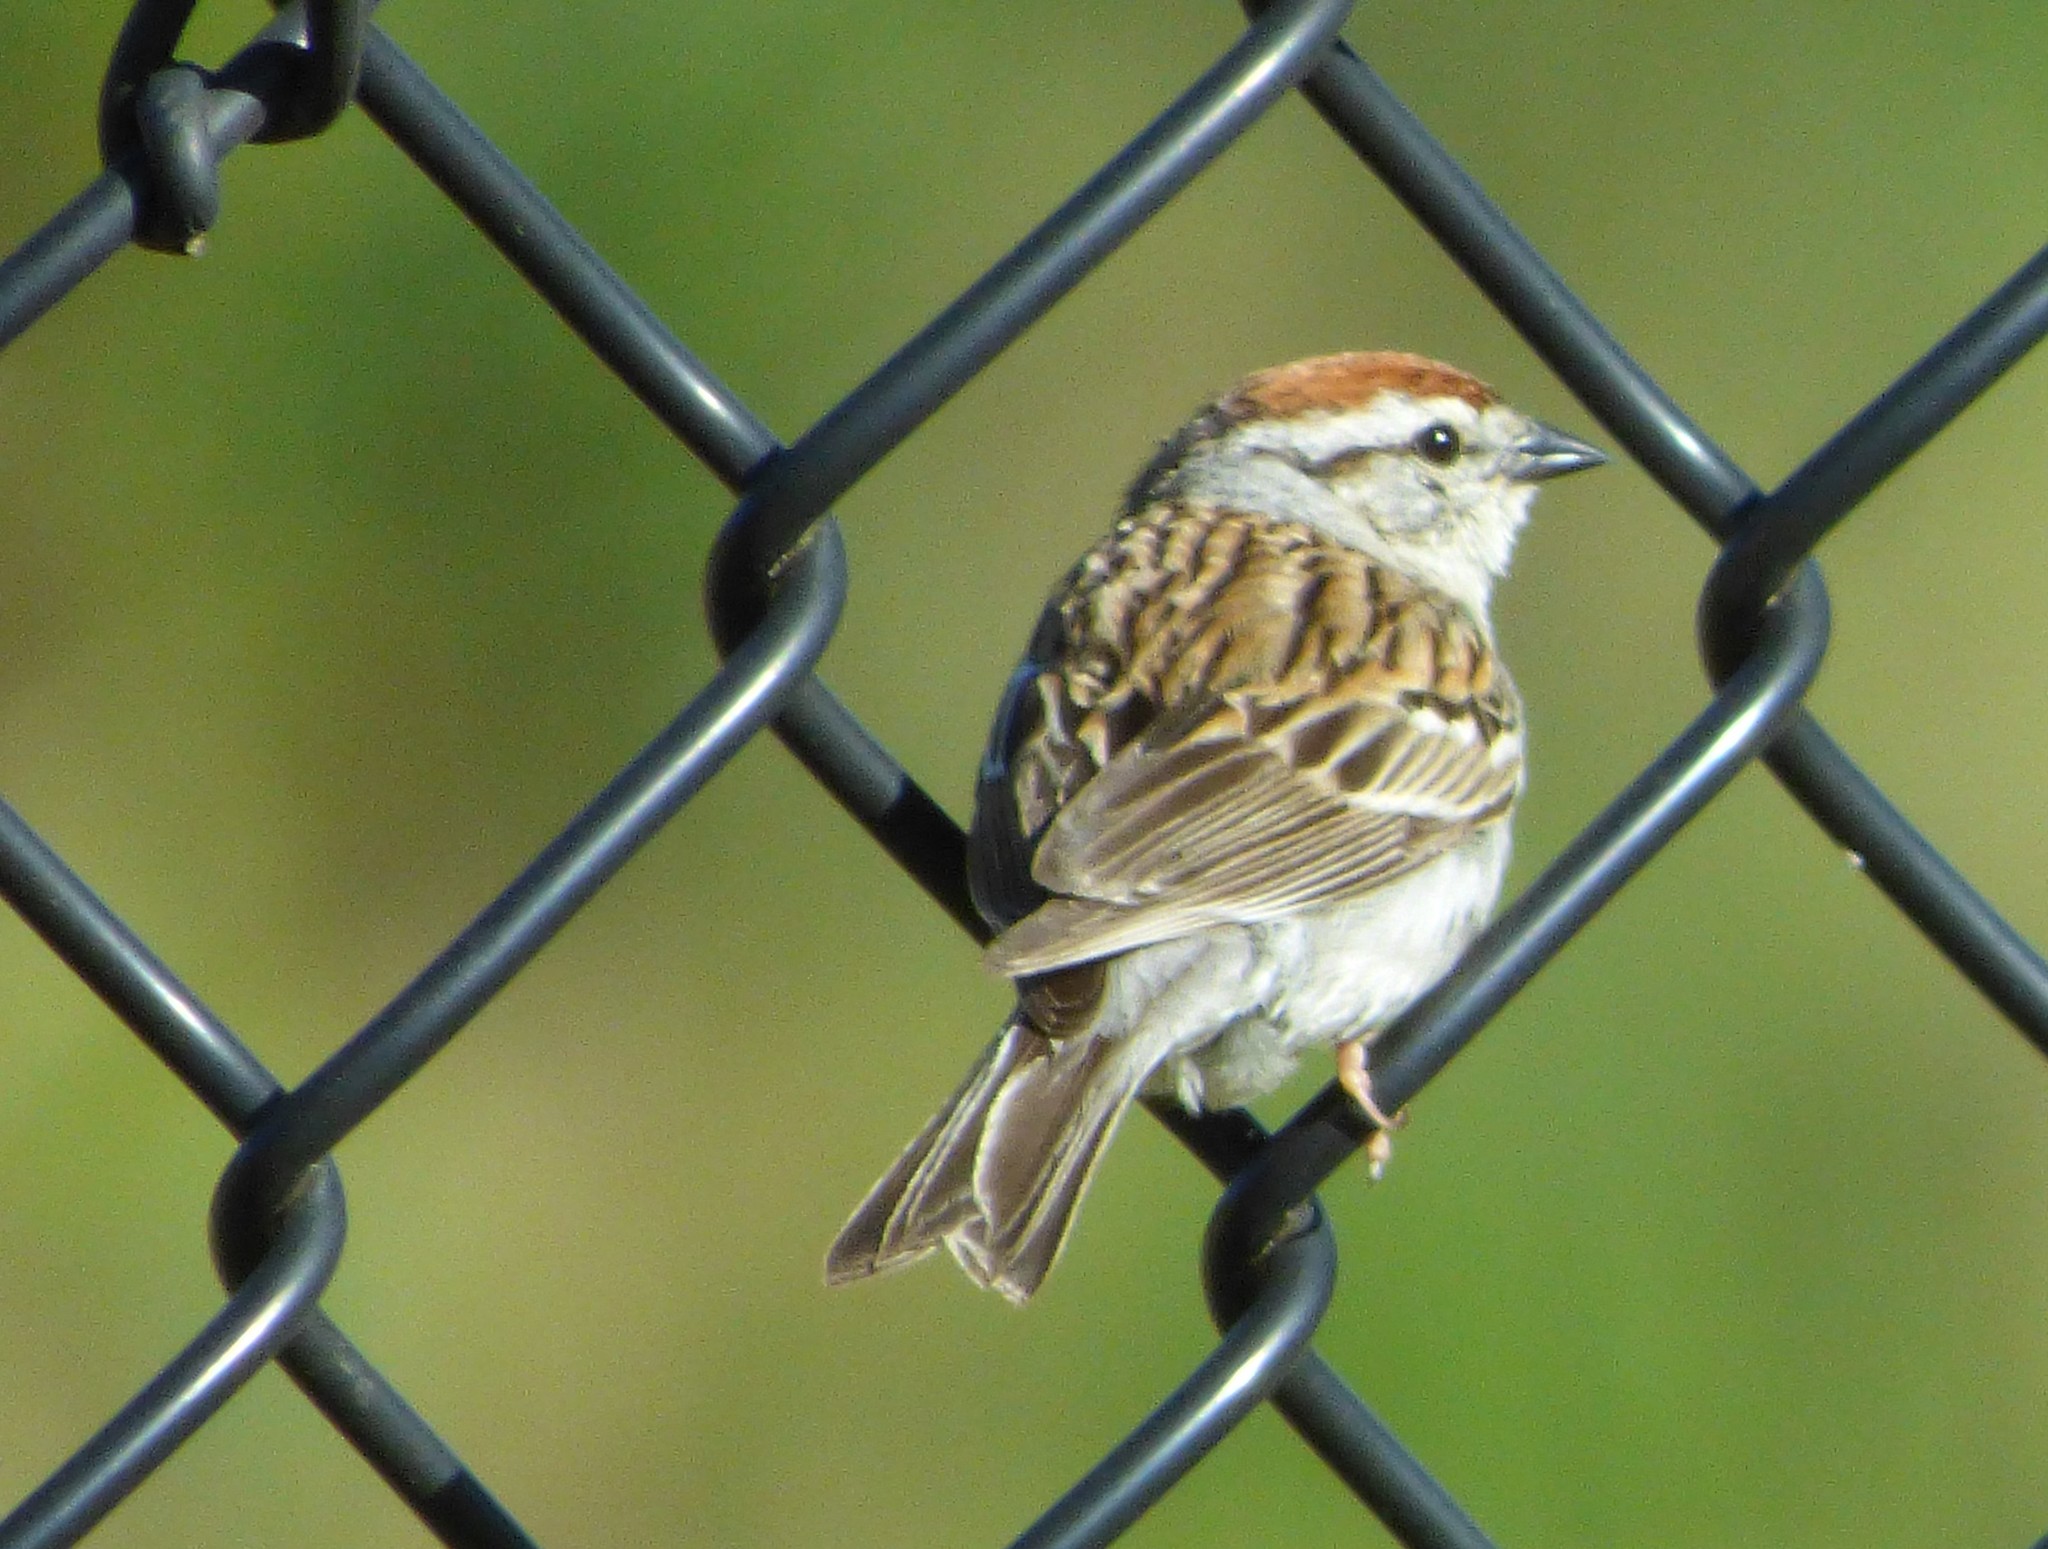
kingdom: Animalia
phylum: Chordata
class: Aves
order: Passeriformes
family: Passerellidae
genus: Spizella
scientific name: Spizella passerina
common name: Chipping sparrow
